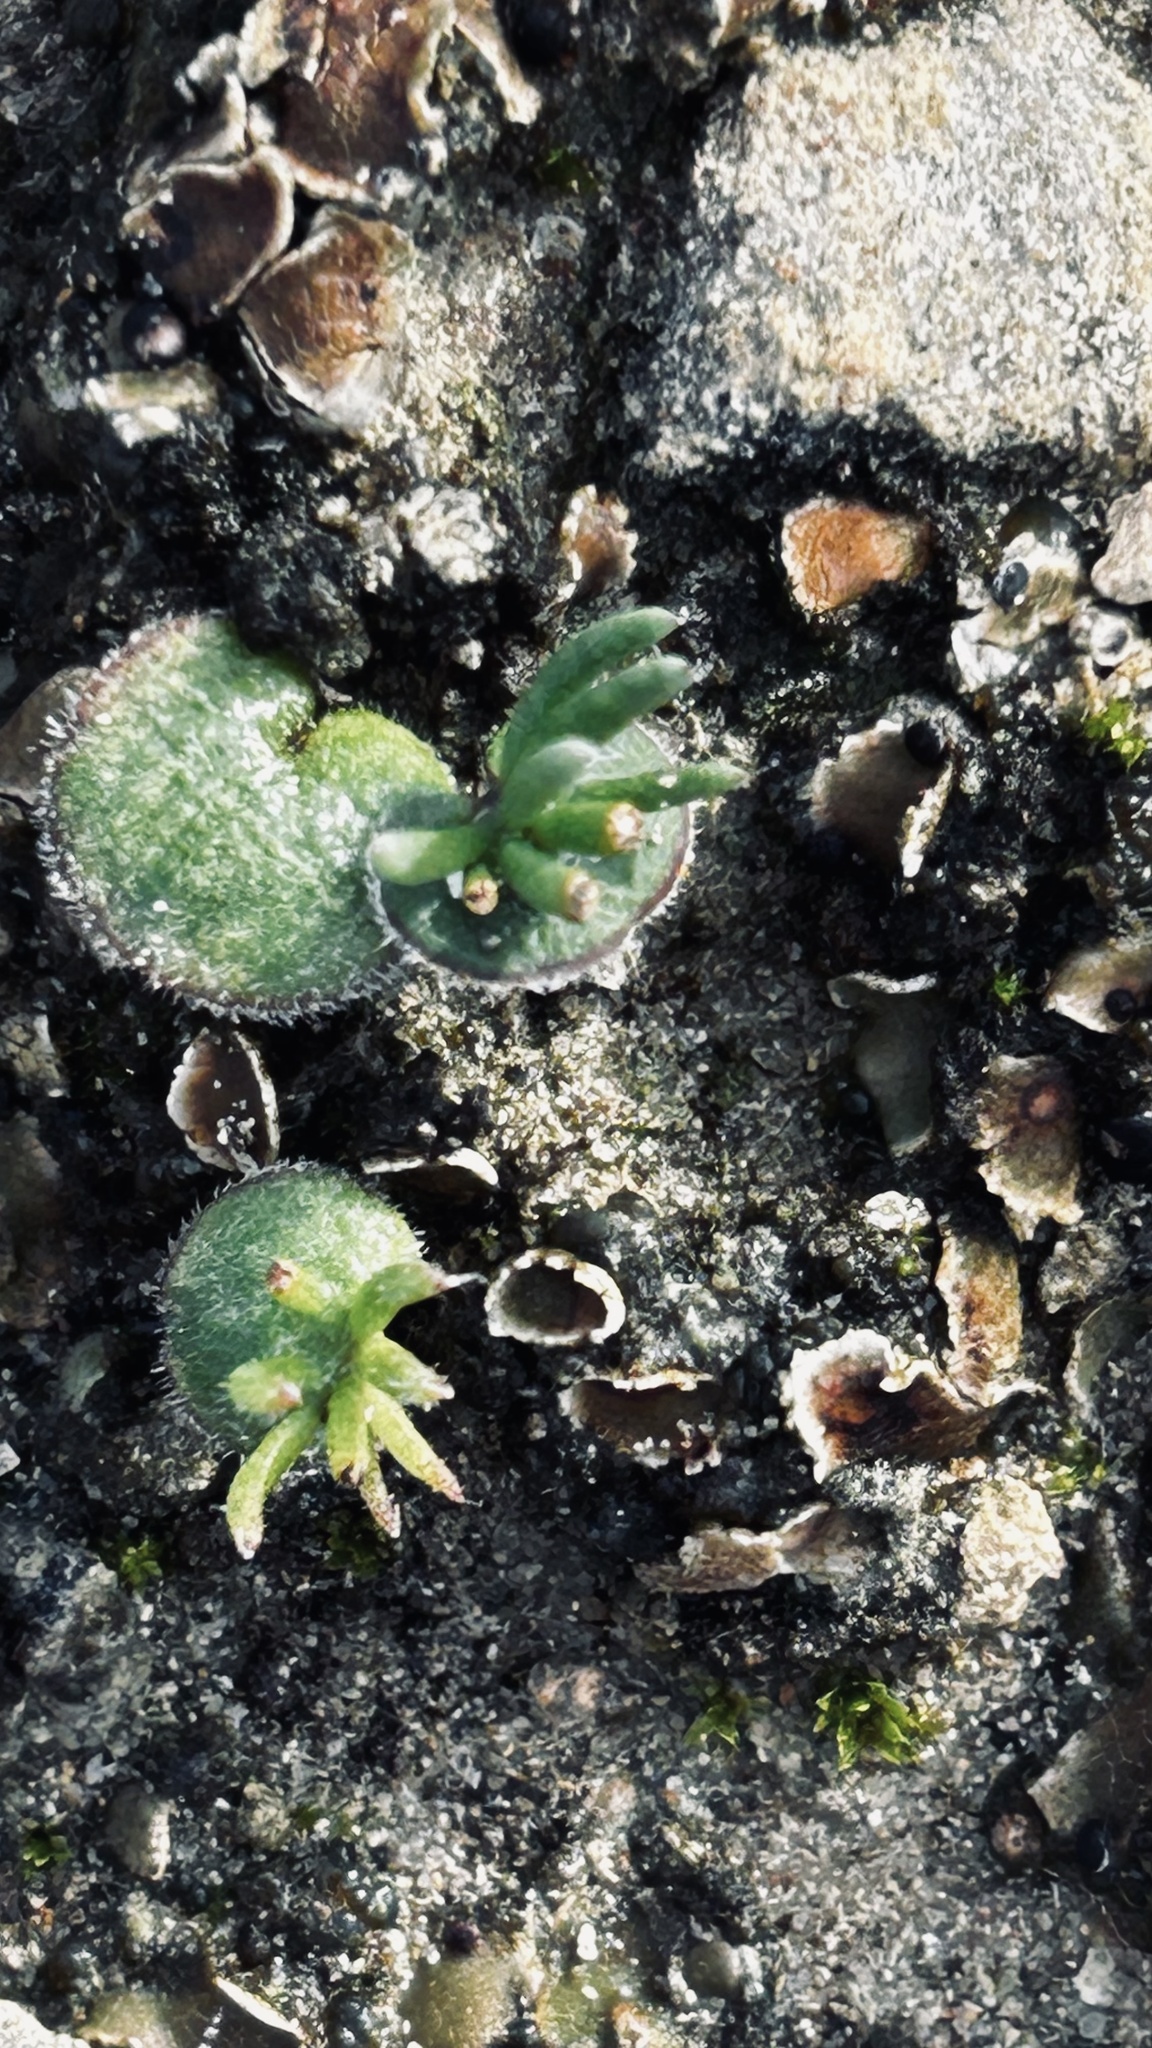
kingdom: Plantae
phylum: Tracheophyta
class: Liliopsida
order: Asparagales
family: Asparagaceae
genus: Eriospermum
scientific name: Eriospermum proliferum
